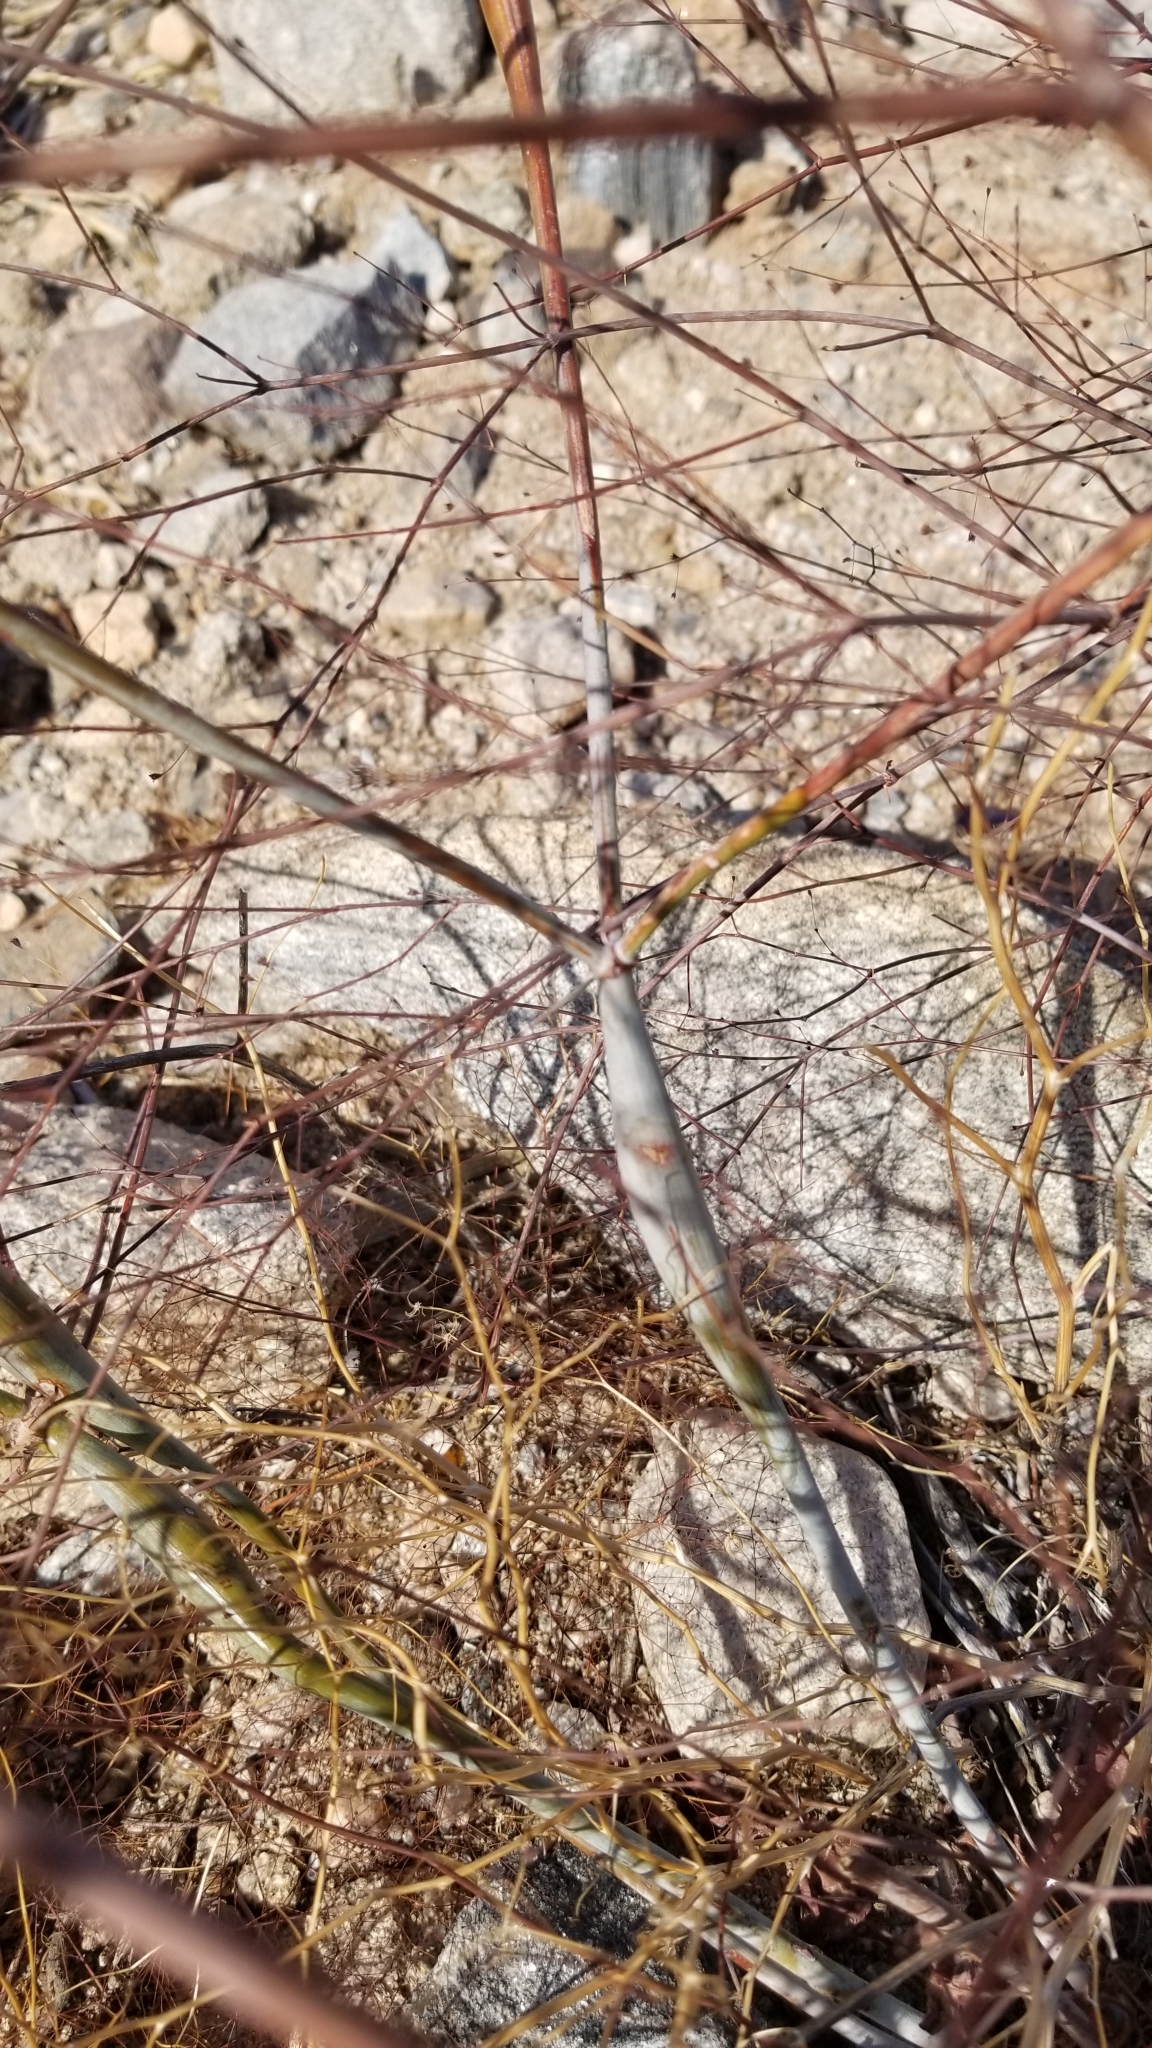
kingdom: Plantae
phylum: Tracheophyta
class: Magnoliopsida
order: Caryophyllales
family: Polygonaceae
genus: Eriogonum
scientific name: Eriogonum inflatum
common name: Desert trumpet
